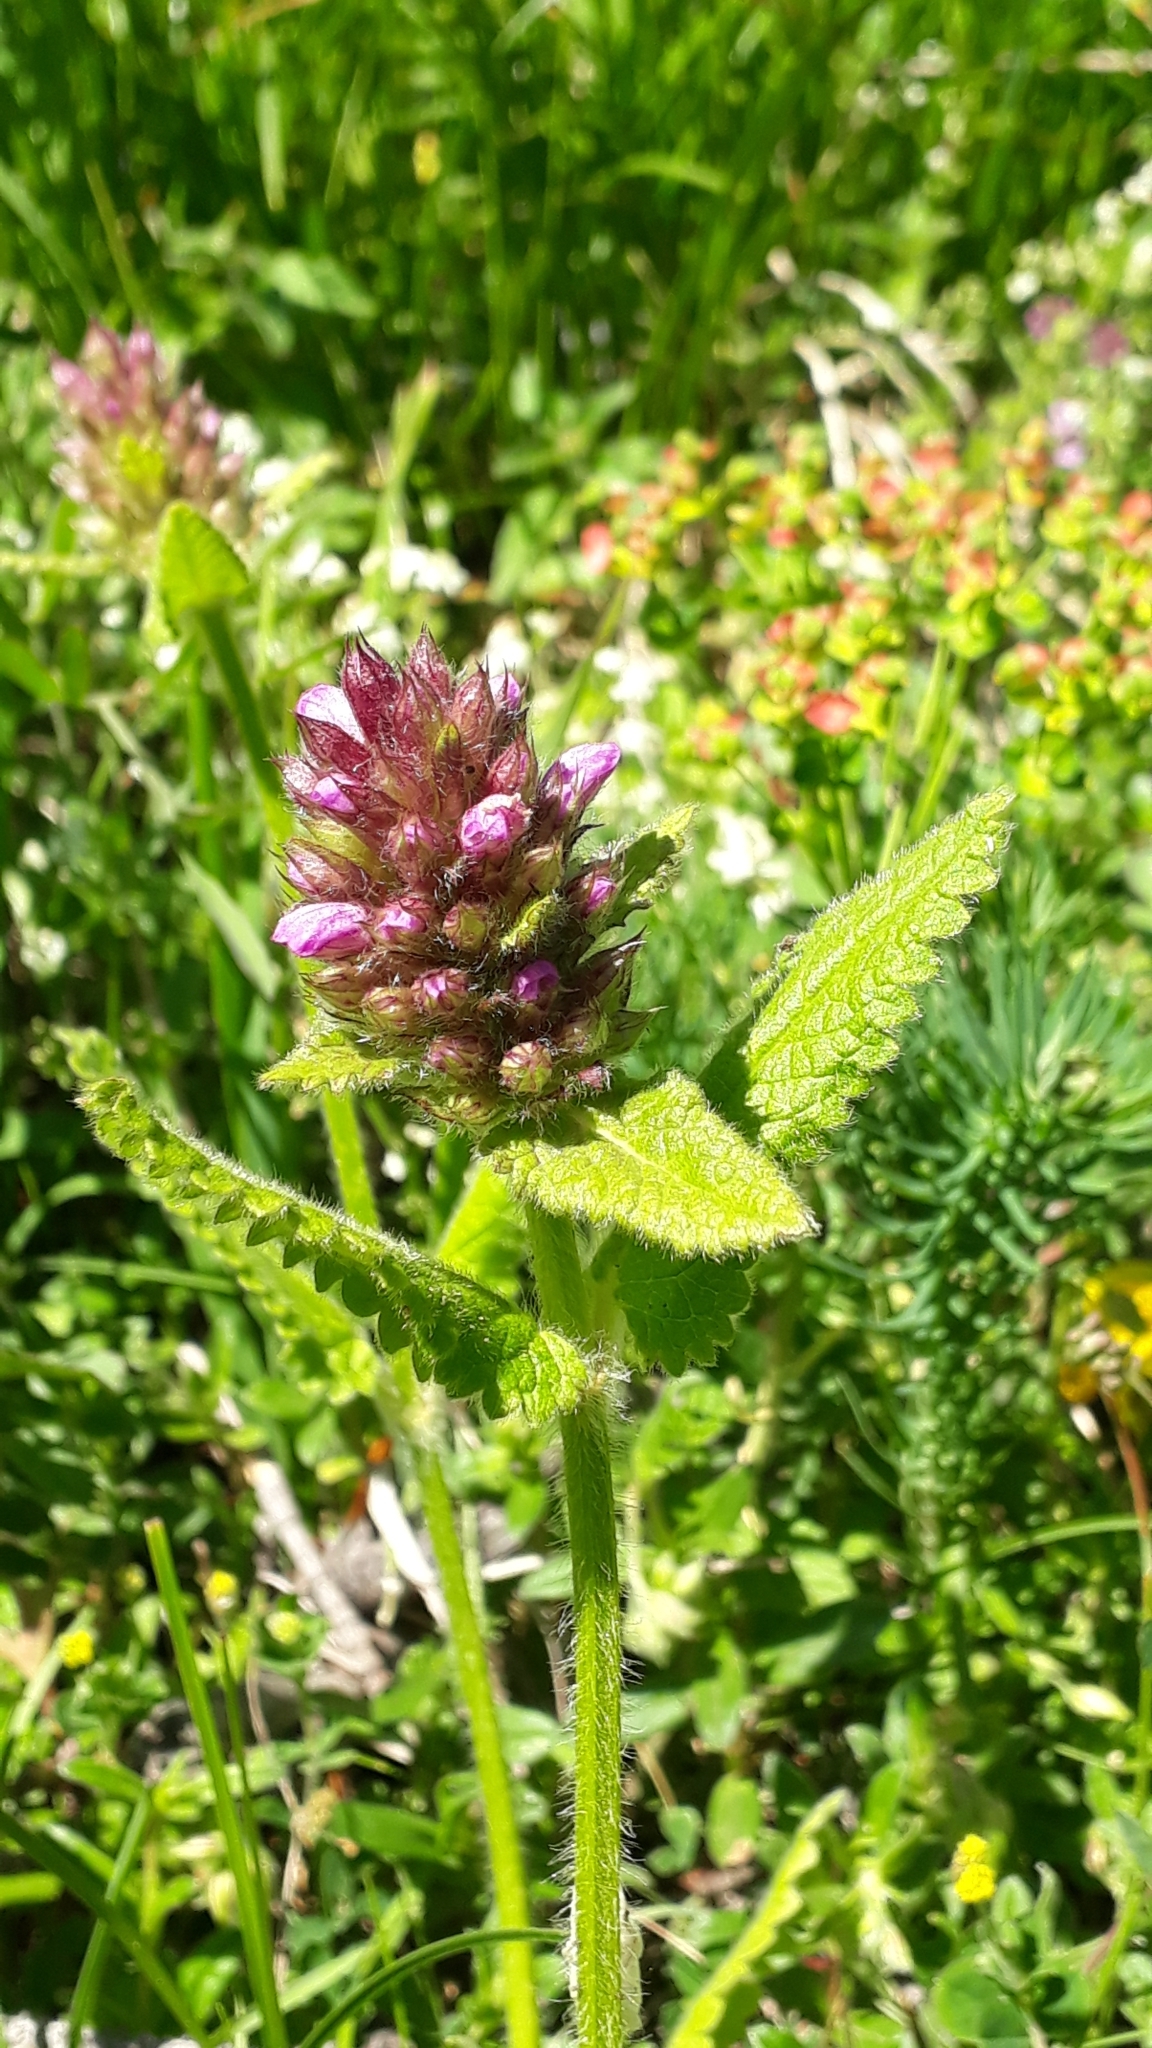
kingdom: Plantae
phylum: Tracheophyta
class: Magnoliopsida
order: Lamiales
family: Lamiaceae
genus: Betonica
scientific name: Betonica hirsuta
